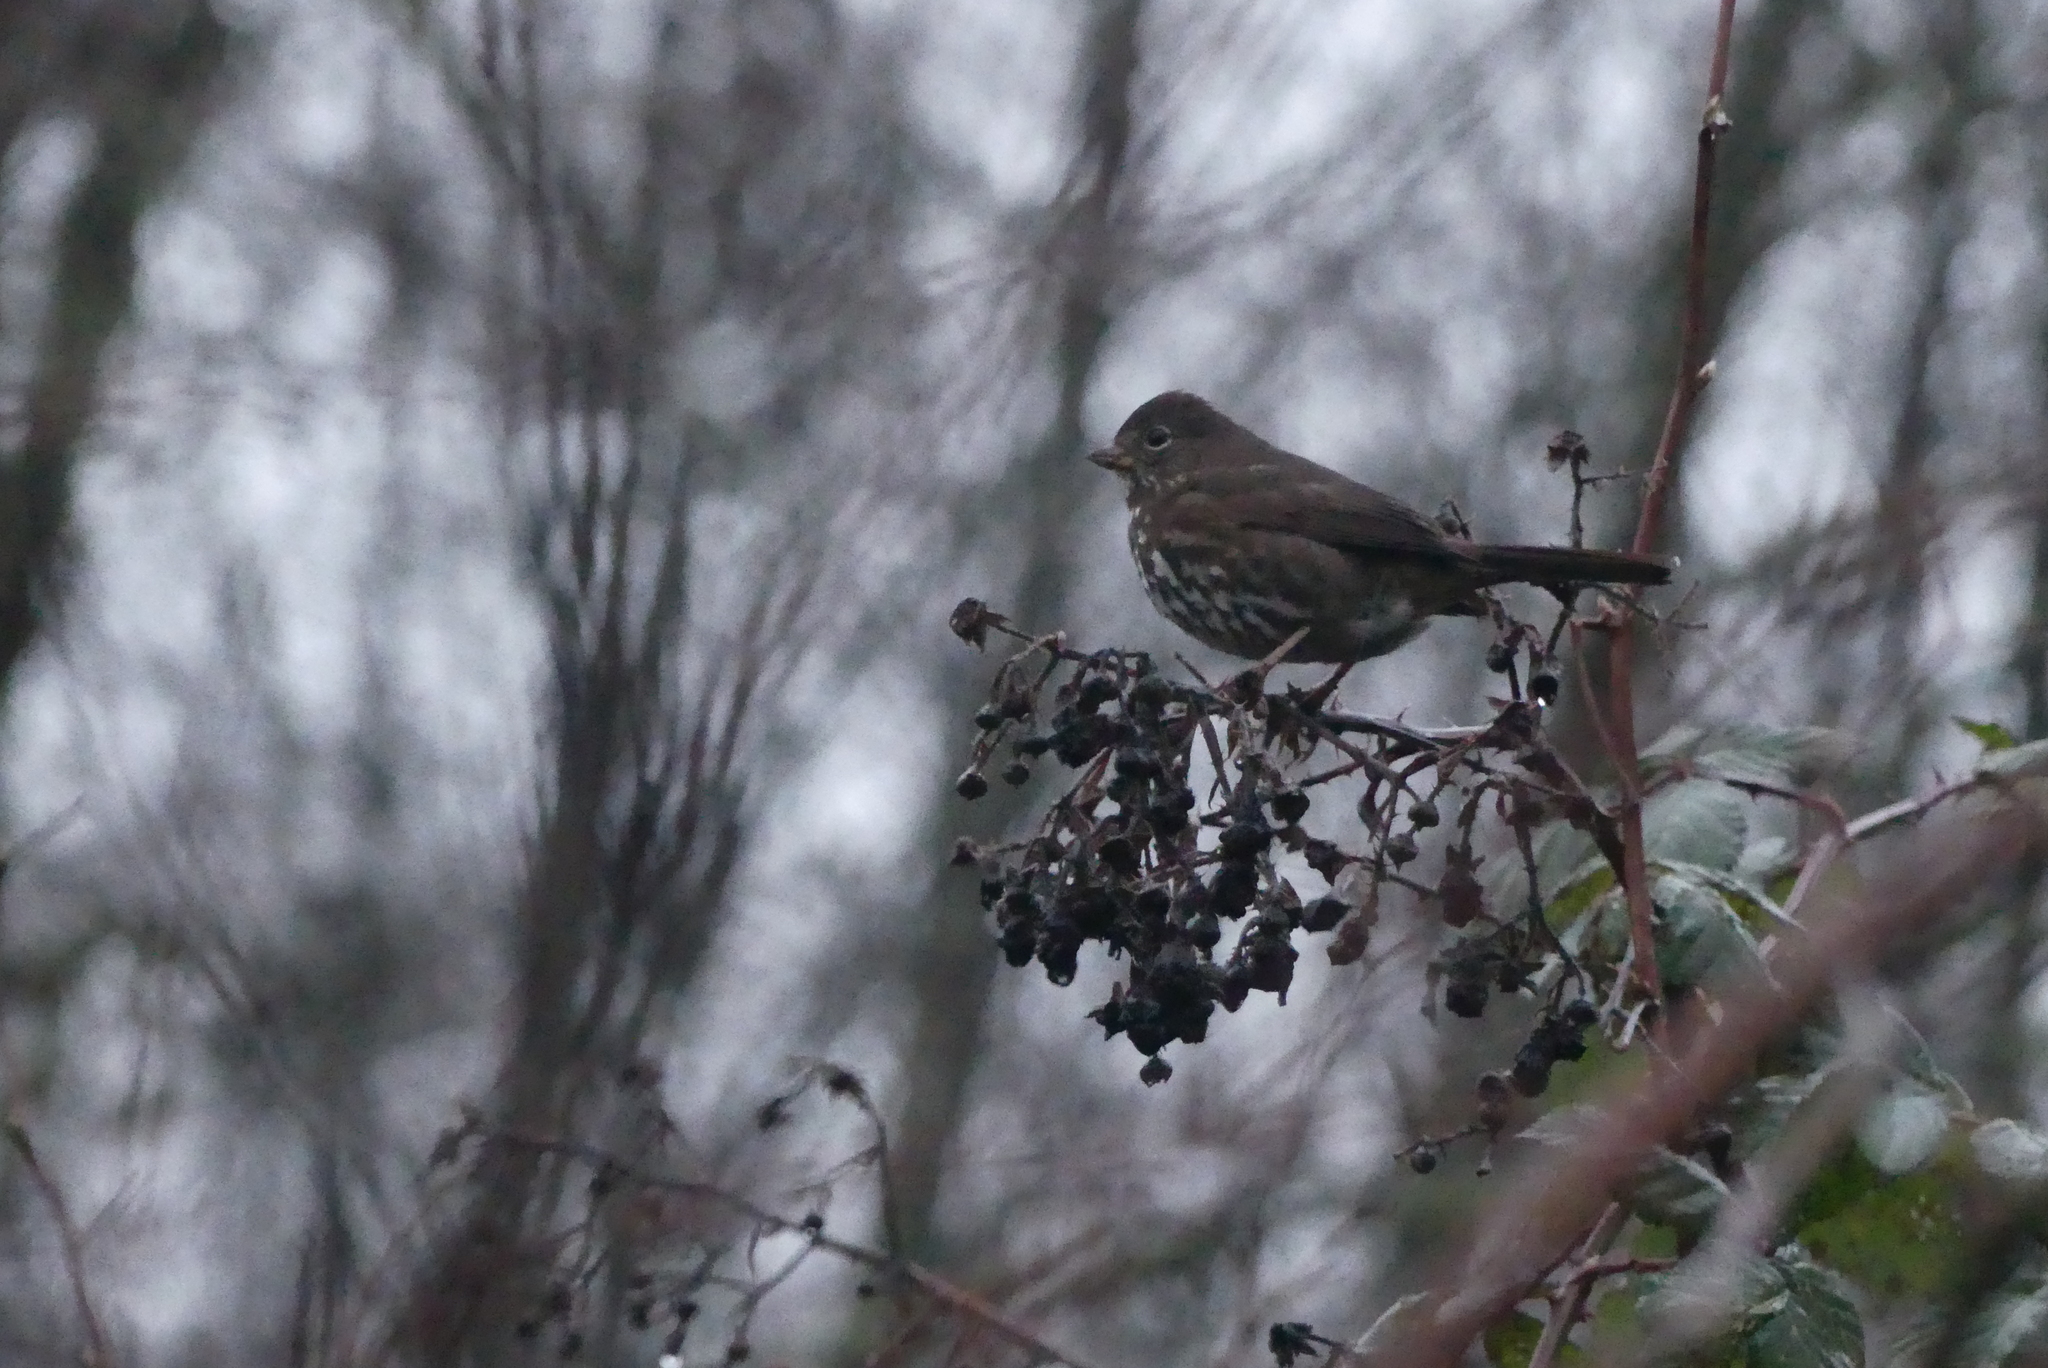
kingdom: Animalia
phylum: Chordata
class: Aves
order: Passeriformes
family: Passerellidae
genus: Passerella
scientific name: Passerella iliaca
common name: Fox sparrow
